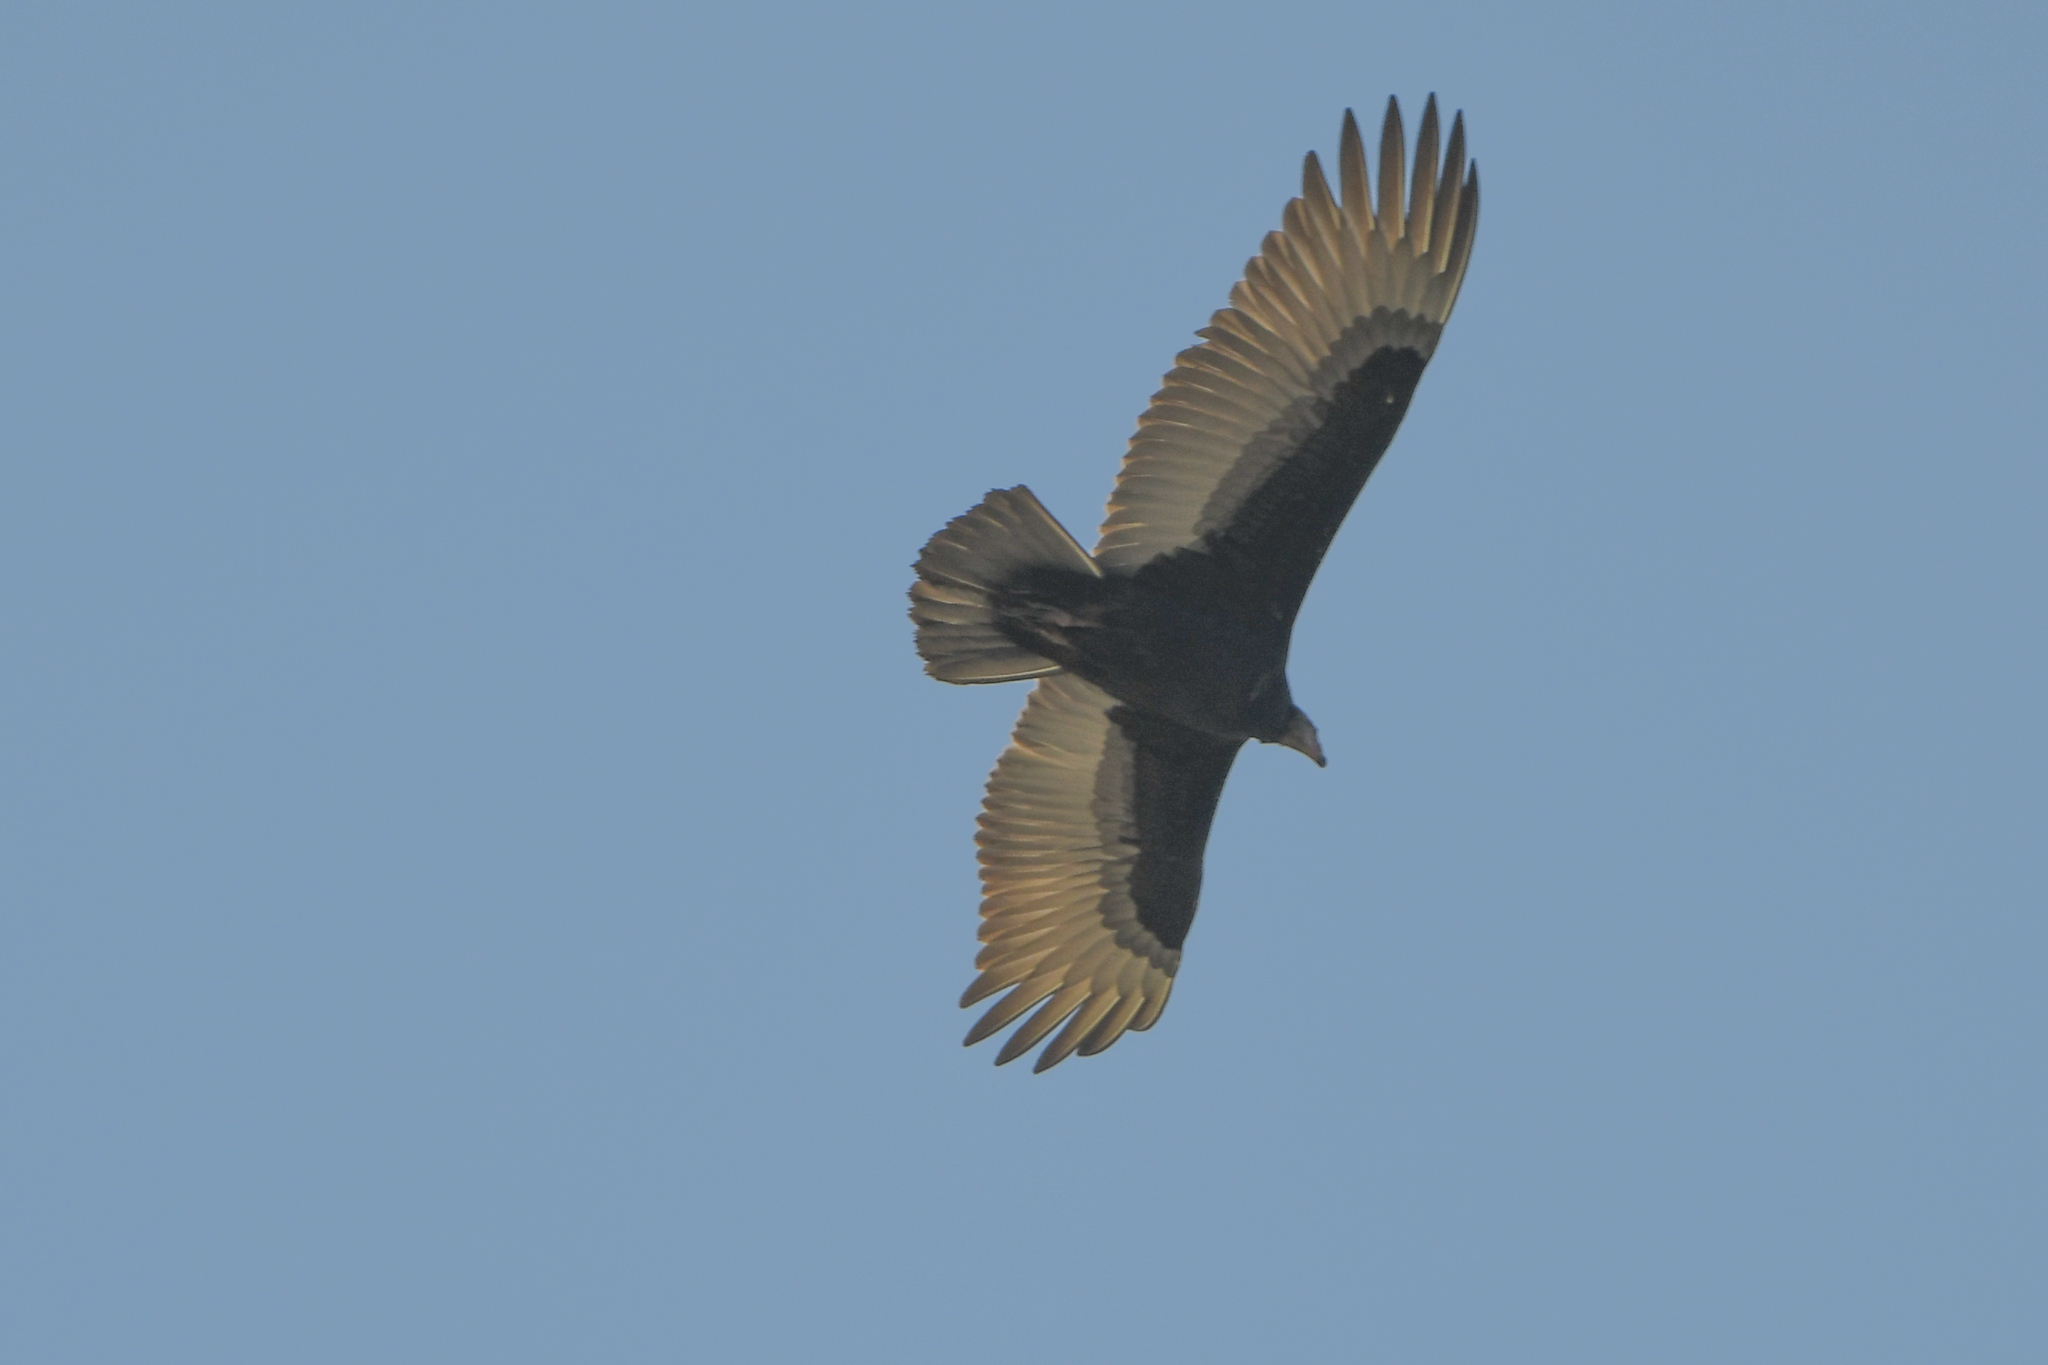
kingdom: Animalia
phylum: Chordata
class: Aves
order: Accipitriformes
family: Cathartidae
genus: Cathartes
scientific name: Cathartes aura
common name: Turkey vulture
